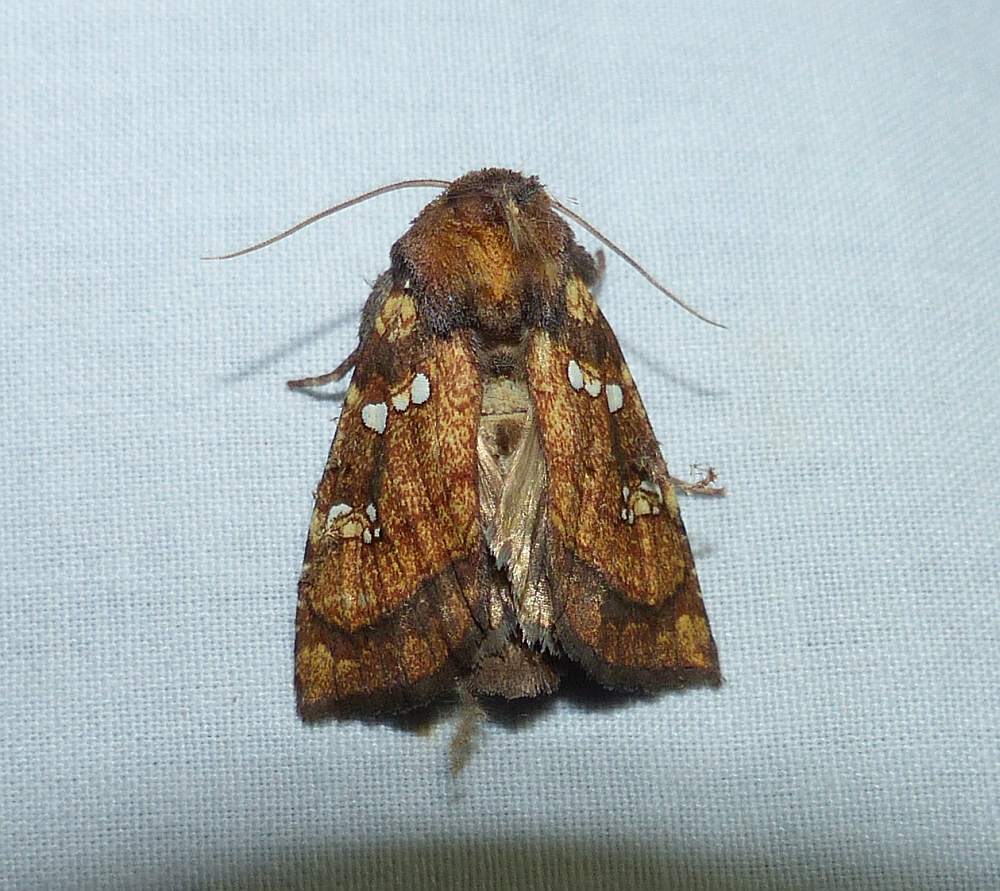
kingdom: Animalia
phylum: Arthropoda
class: Insecta
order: Lepidoptera
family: Noctuidae
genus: Papaipema
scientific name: Papaipema arctivorens
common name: Northern burdock borer moth
